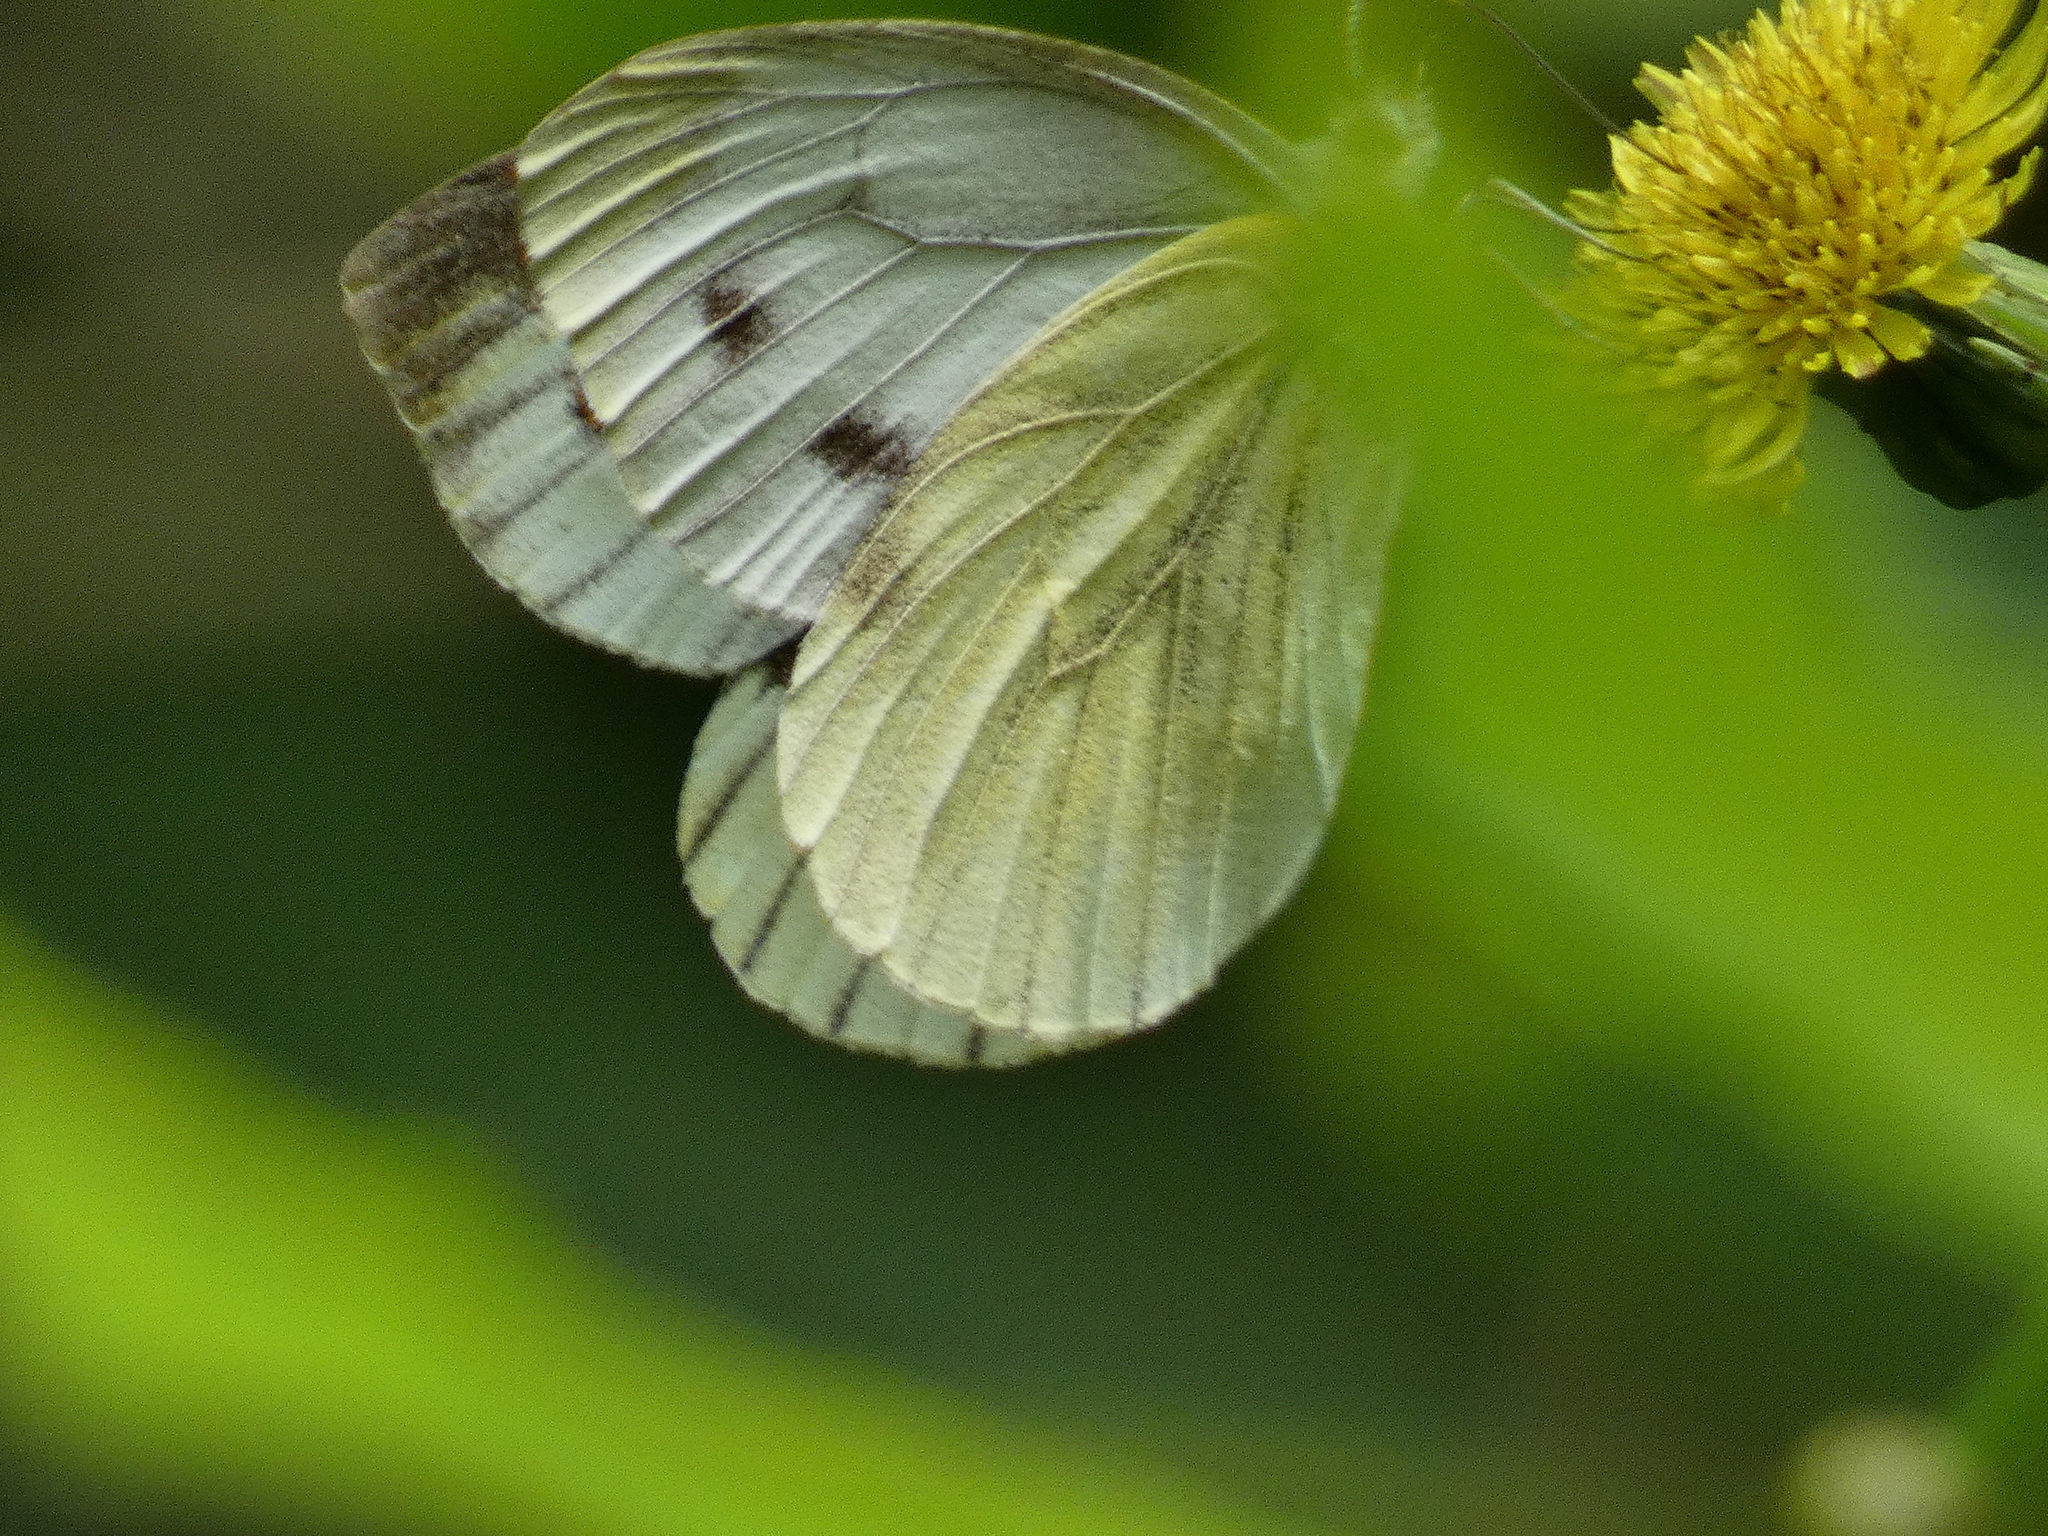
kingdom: Animalia
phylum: Arthropoda
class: Insecta
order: Lepidoptera
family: Pieridae
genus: Pieris
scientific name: Pieris napi
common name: Green-veined white
